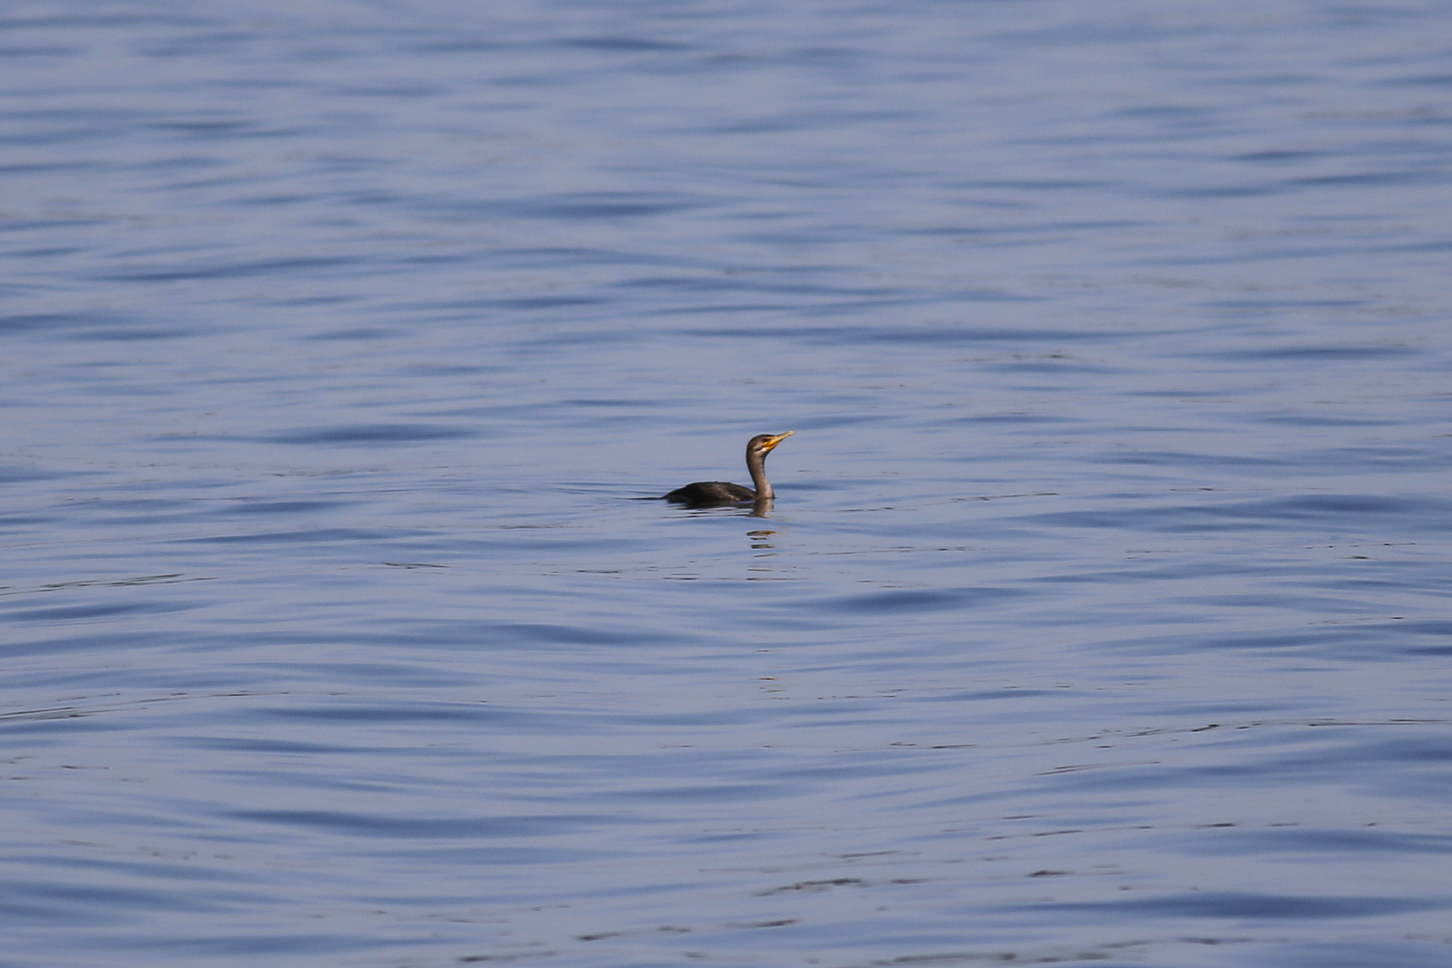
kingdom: Animalia
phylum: Chordata
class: Aves
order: Suliformes
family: Phalacrocoracidae
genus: Phalacrocorax
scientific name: Phalacrocorax auritus
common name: Double-crested cormorant
